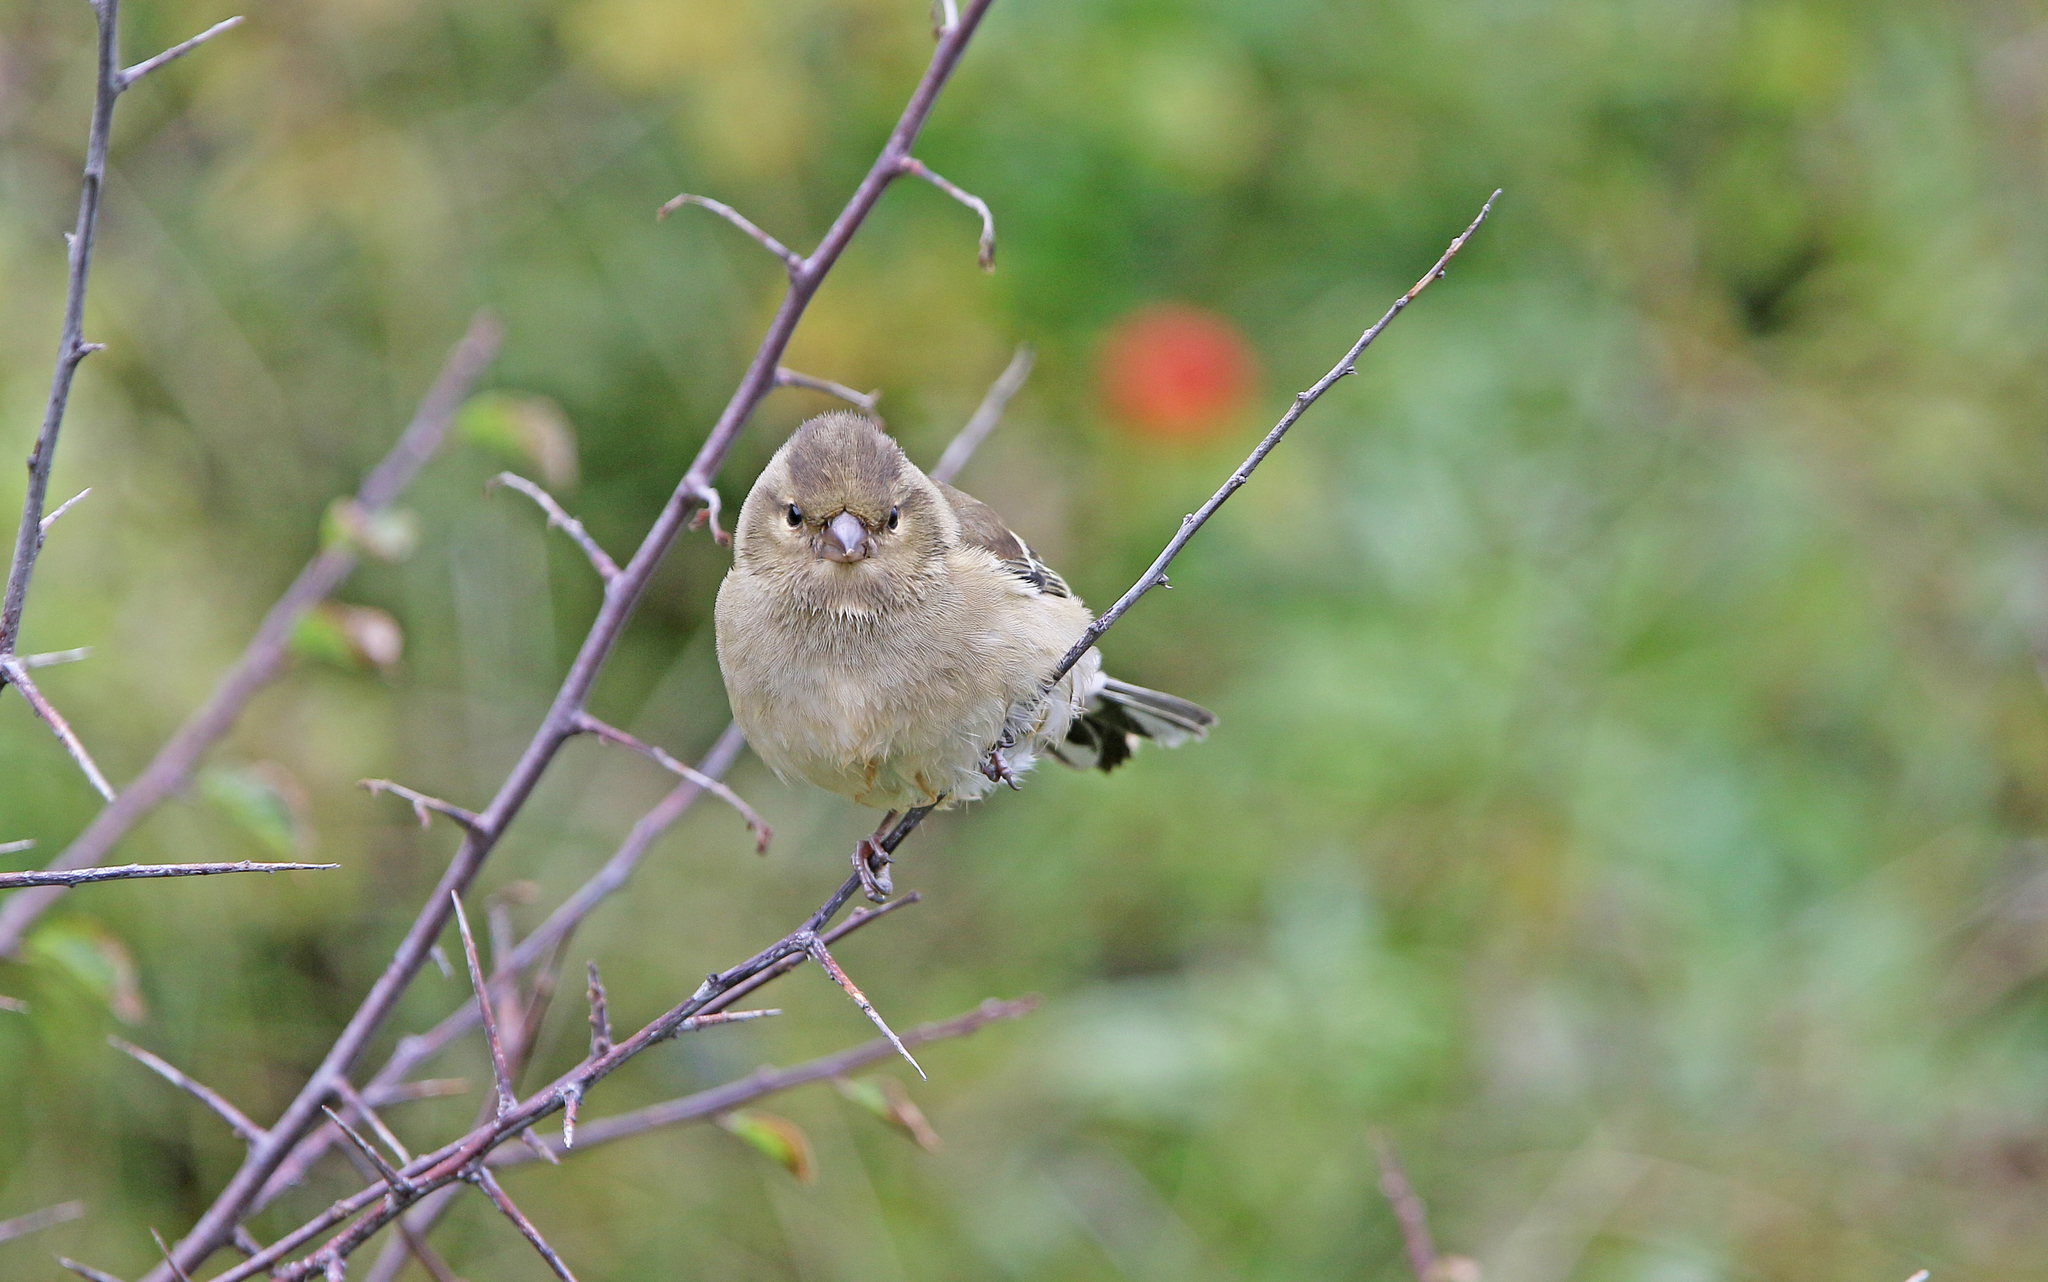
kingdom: Animalia
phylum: Chordata
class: Aves
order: Passeriformes
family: Fringillidae
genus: Fringilla
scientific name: Fringilla coelebs
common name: Common chaffinch
